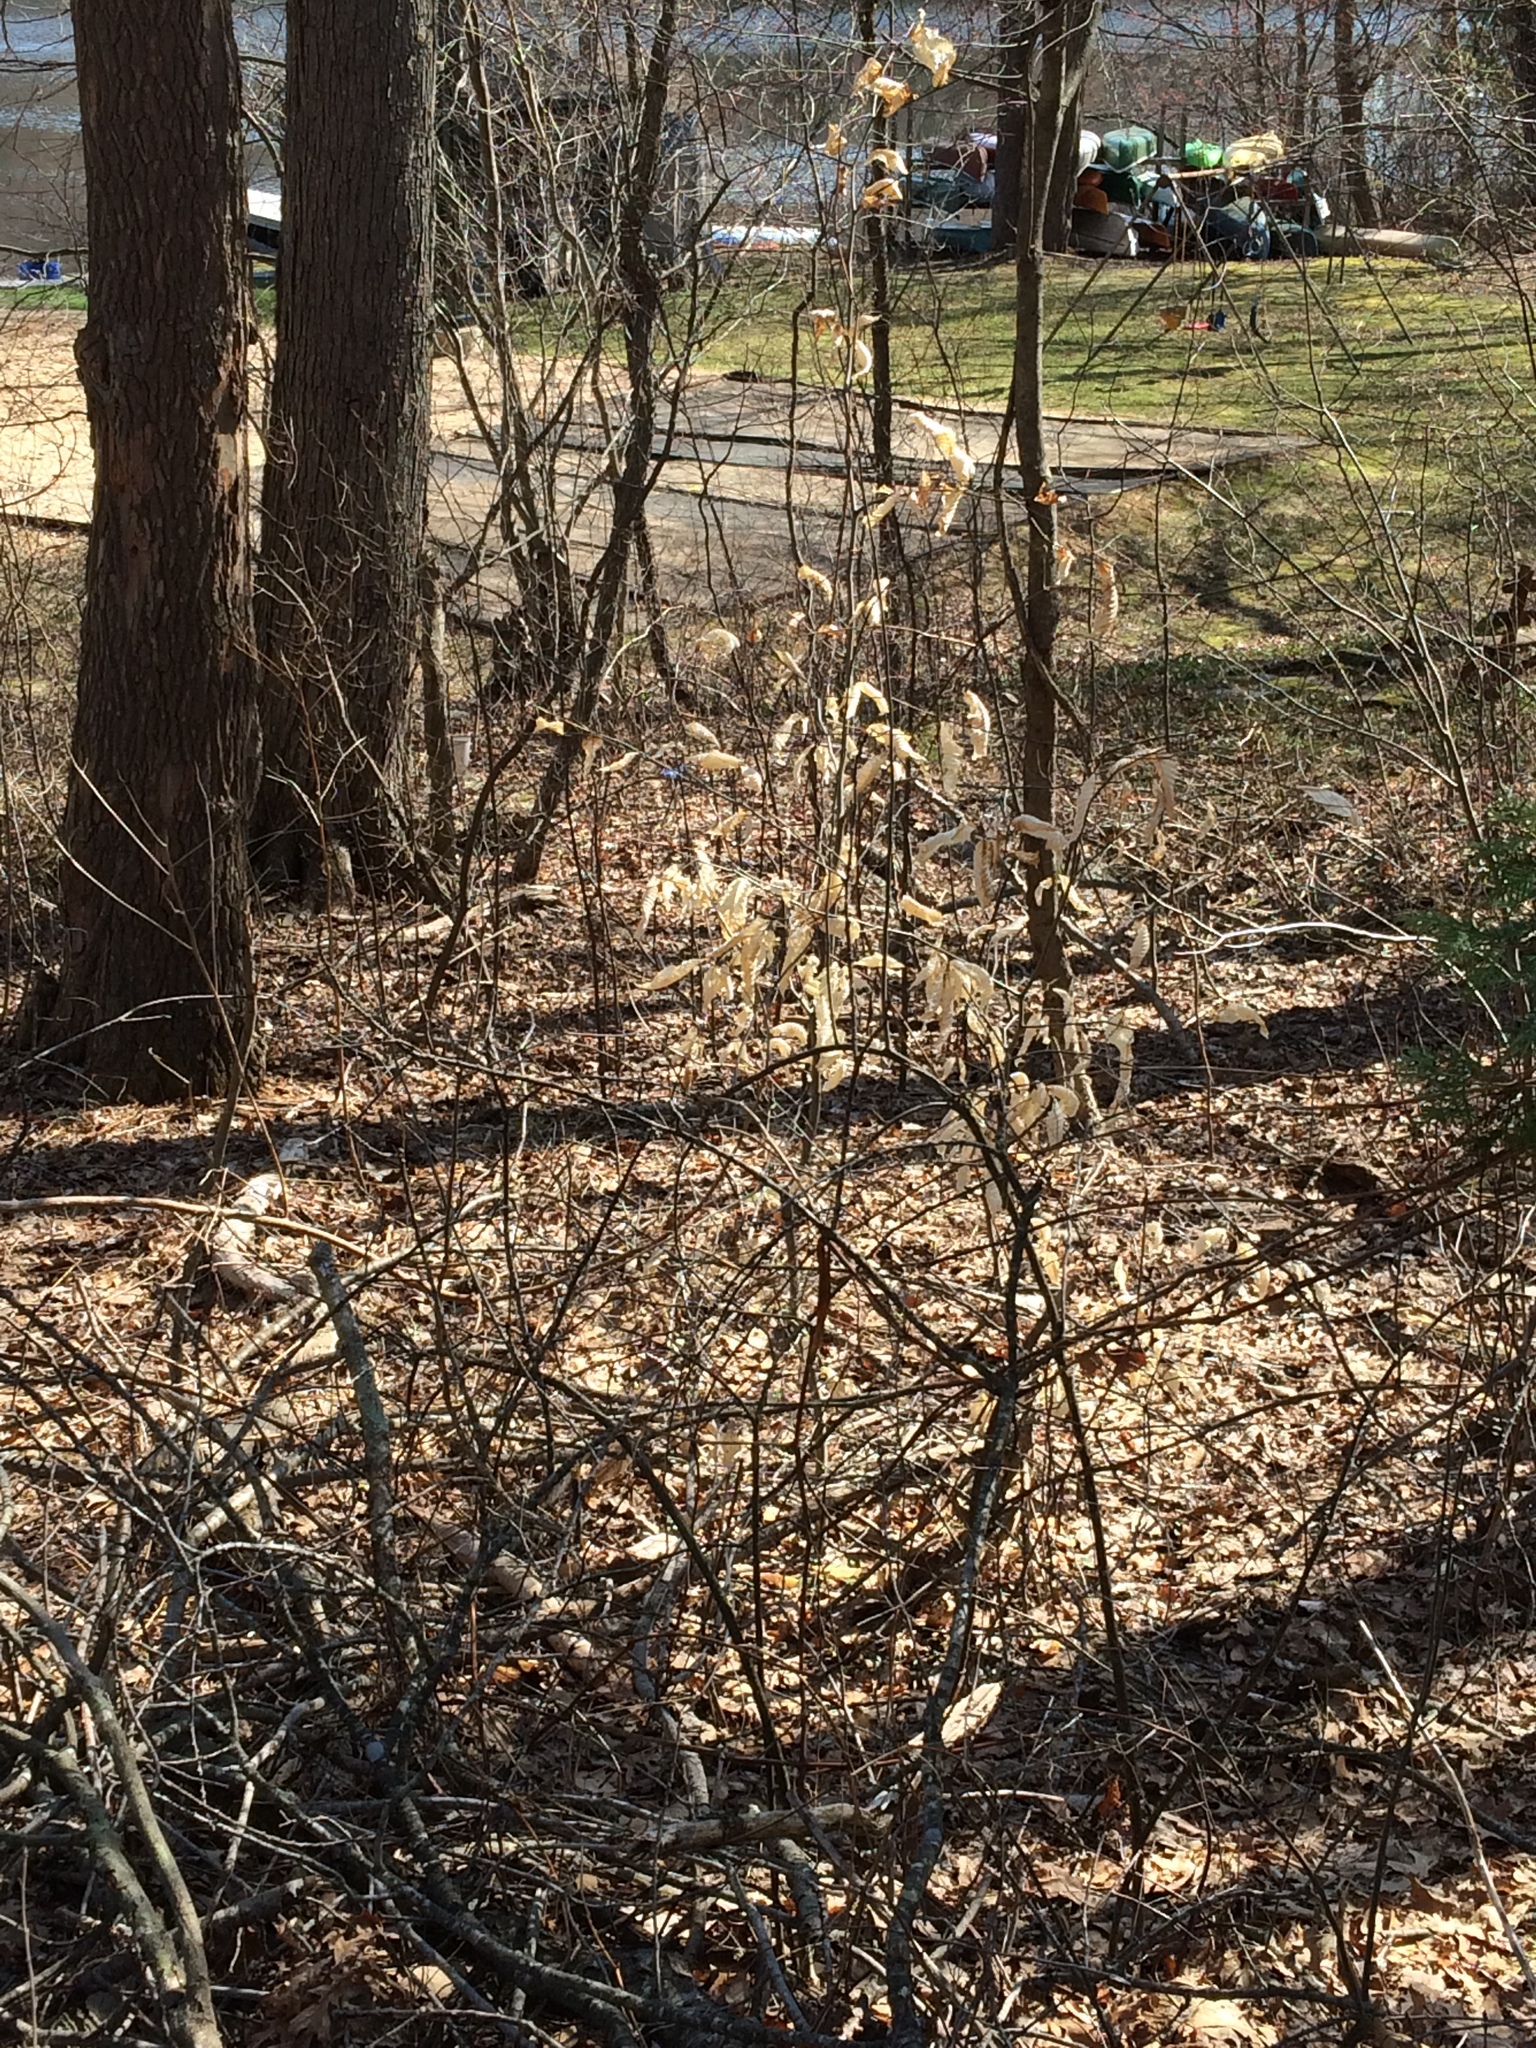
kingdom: Plantae
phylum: Tracheophyta
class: Magnoliopsida
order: Fagales
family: Fagaceae
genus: Fagus
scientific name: Fagus grandifolia
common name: American beech
